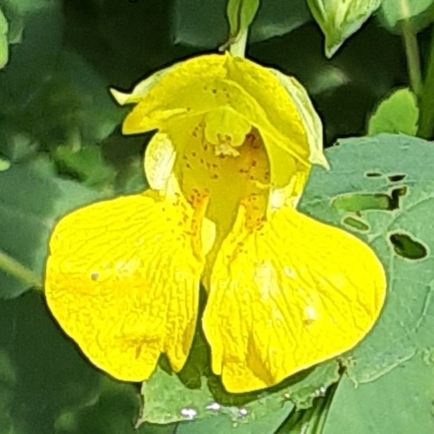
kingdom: Plantae
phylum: Tracheophyta
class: Magnoliopsida
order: Ericales
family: Balsaminaceae
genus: Impatiens
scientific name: Impatiens pallida
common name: Pale snapweed
